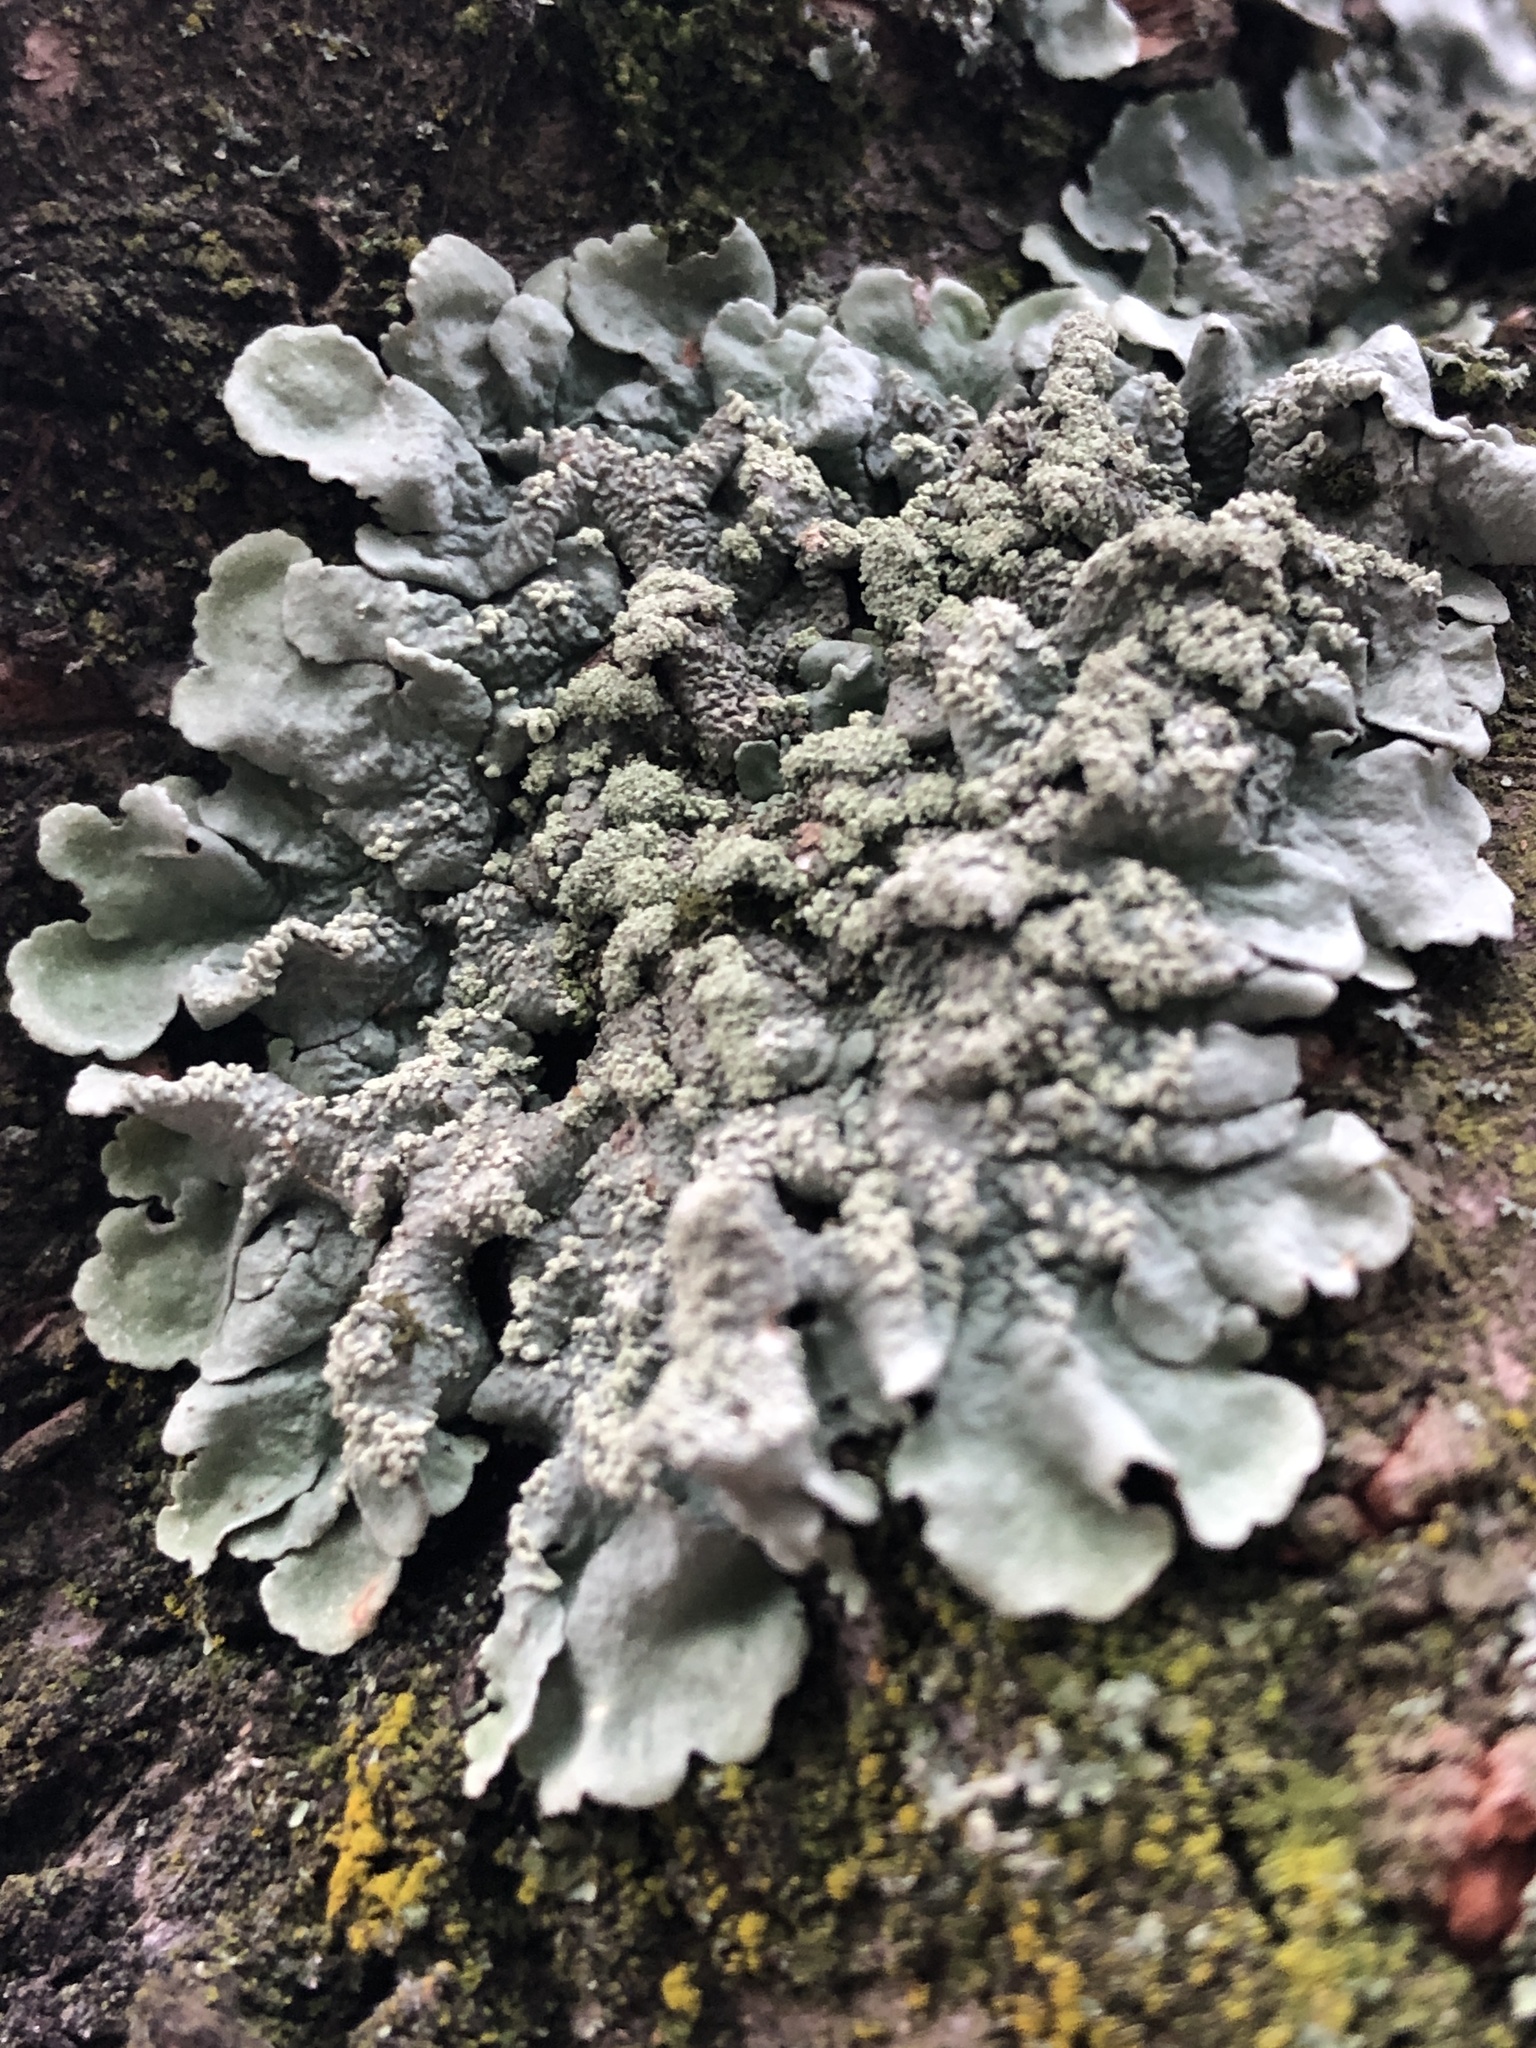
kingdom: Fungi
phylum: Ascomycota
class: Lecanoromycetes
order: Lecanorales
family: Parmeliaceae
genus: Flavoparmelia
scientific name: Flavoparmelia caperata
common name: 40-mile per hour lichen
